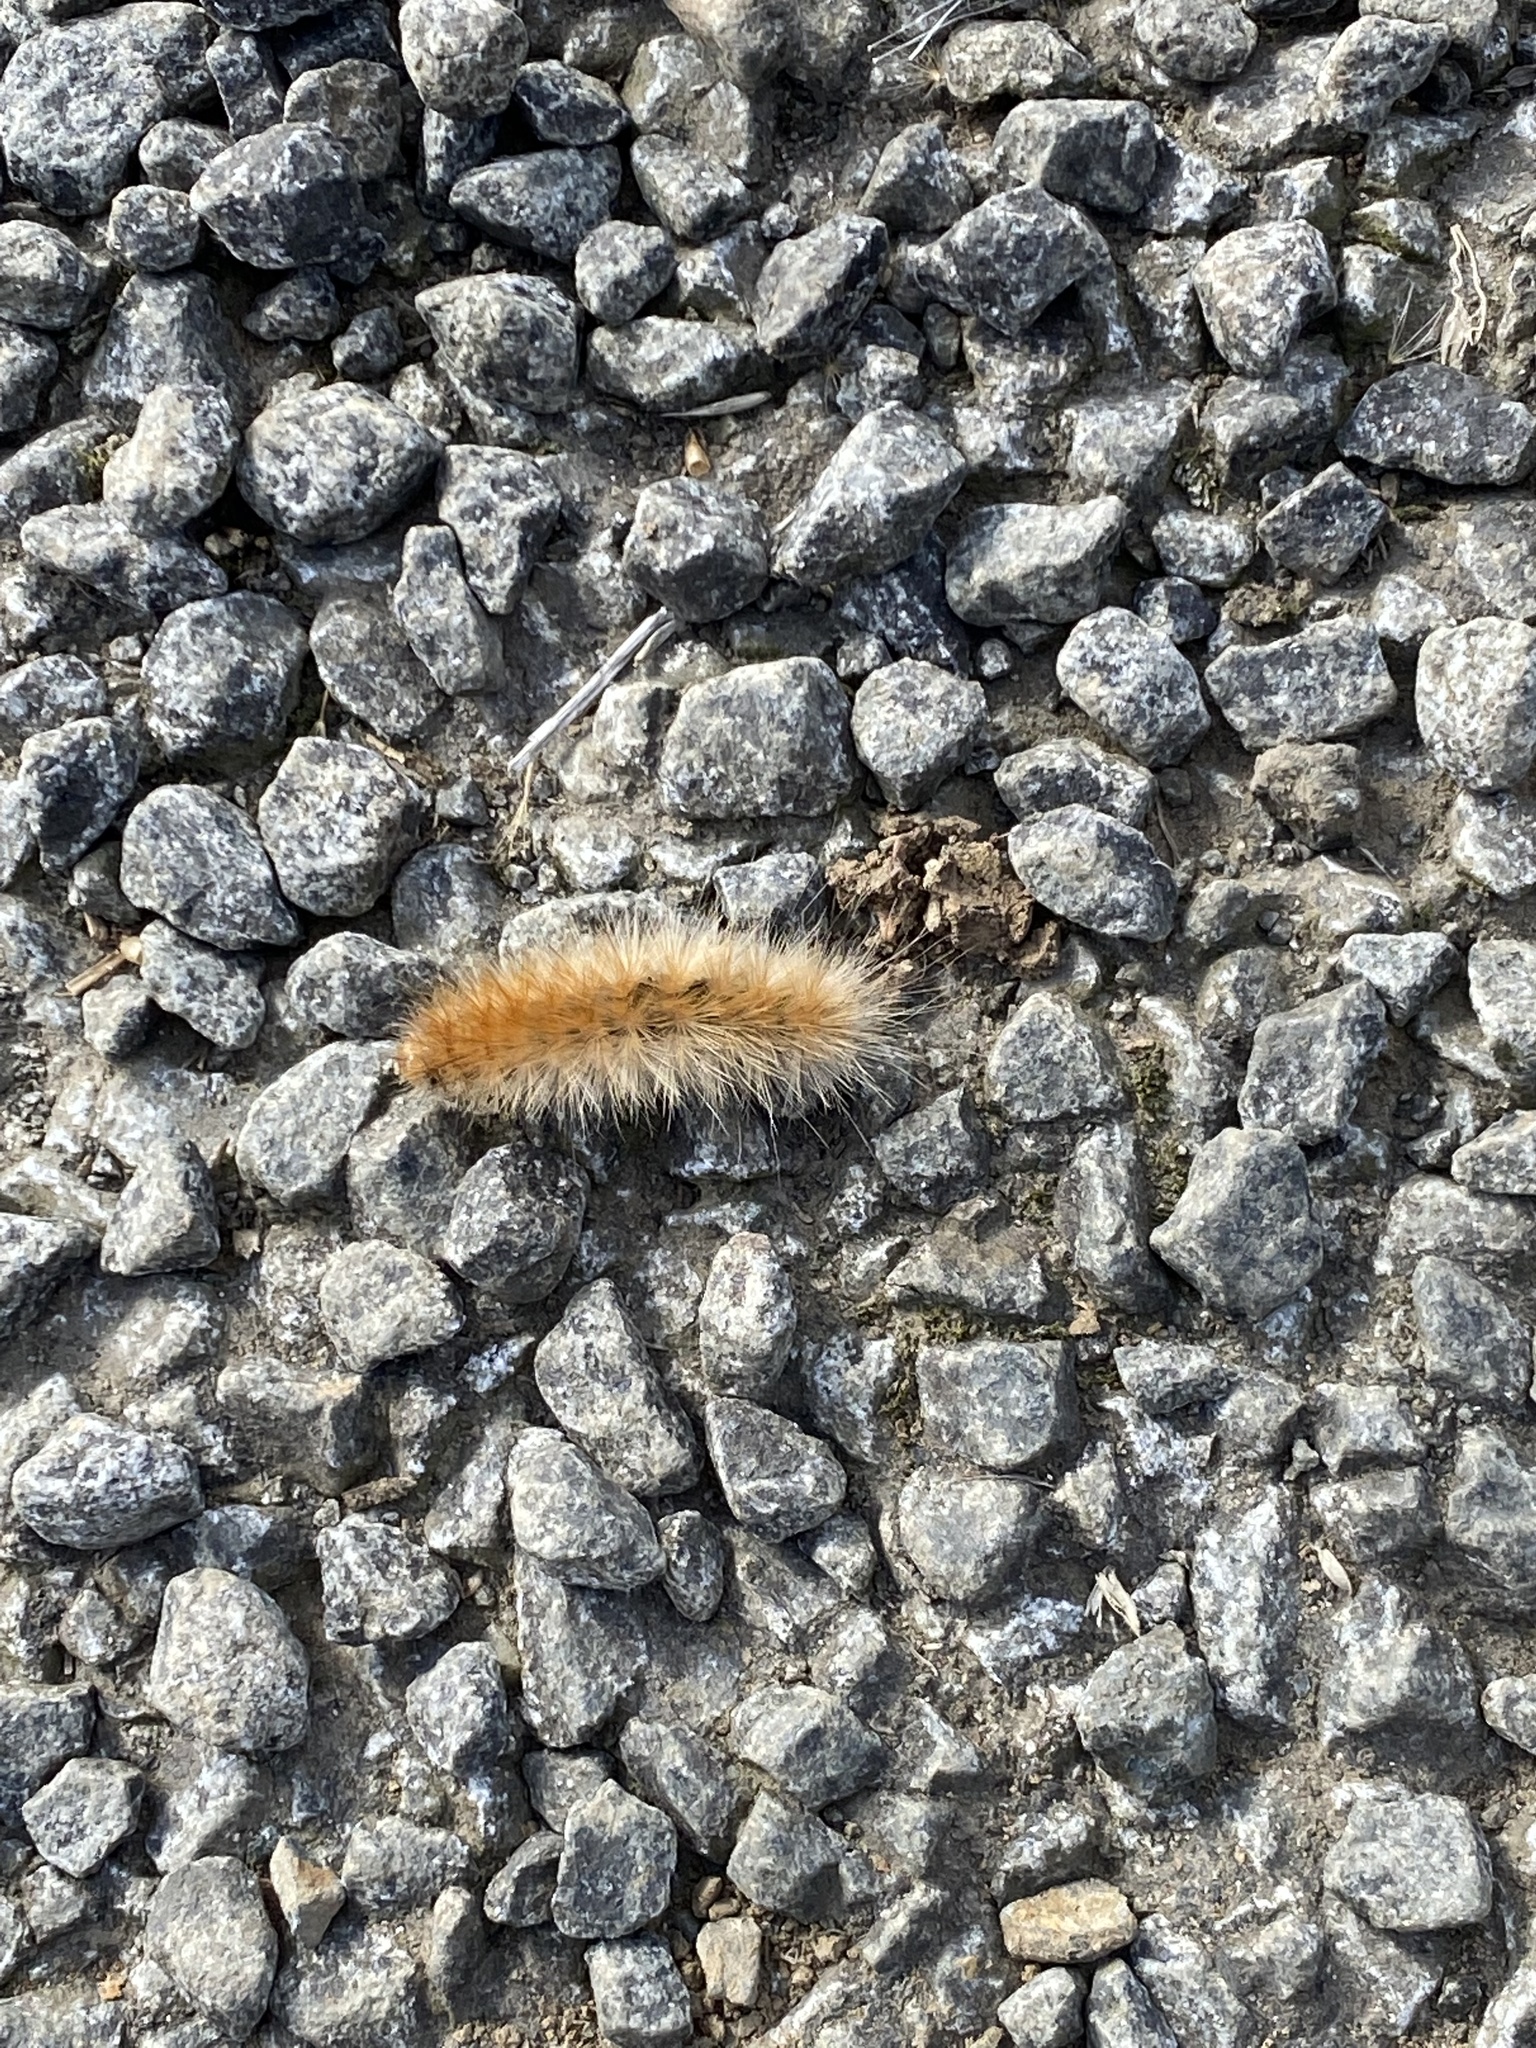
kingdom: Animalia
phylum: Arthropoda
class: Insecta
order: Lepidoptera
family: Erebidae
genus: Spilosoma
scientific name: Spilosoma virginica
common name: Virginia tiger moth
